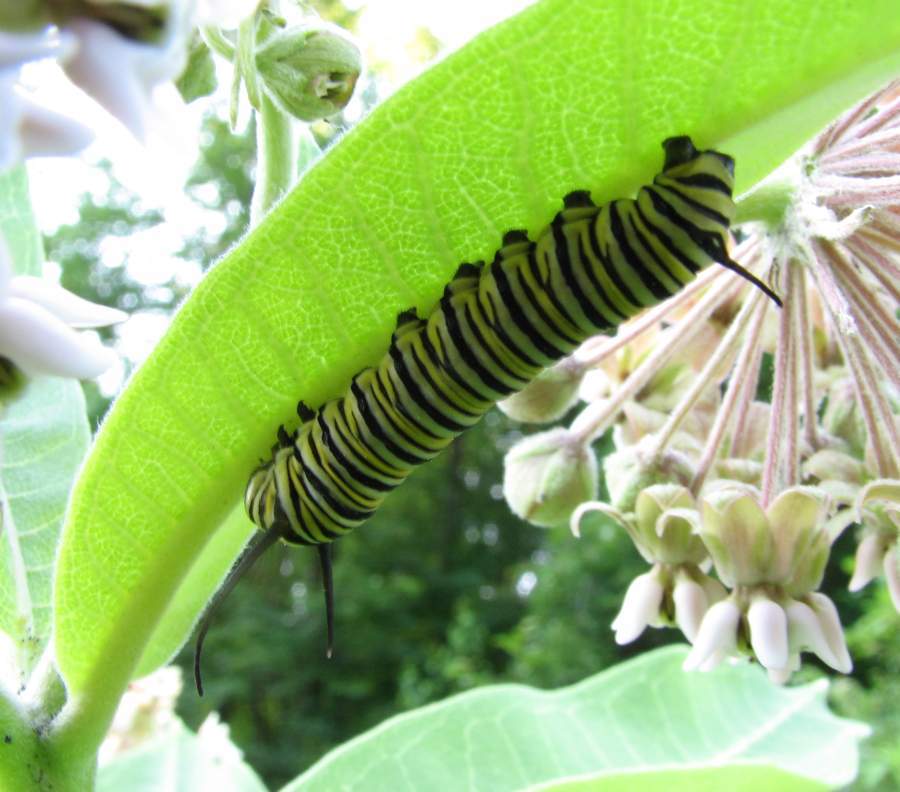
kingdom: Animalia
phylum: Arthropoda
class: Insecta
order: Lepidoptera
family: Nymphalidae
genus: Danaus
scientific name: Danaus plexippus
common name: Monarch
